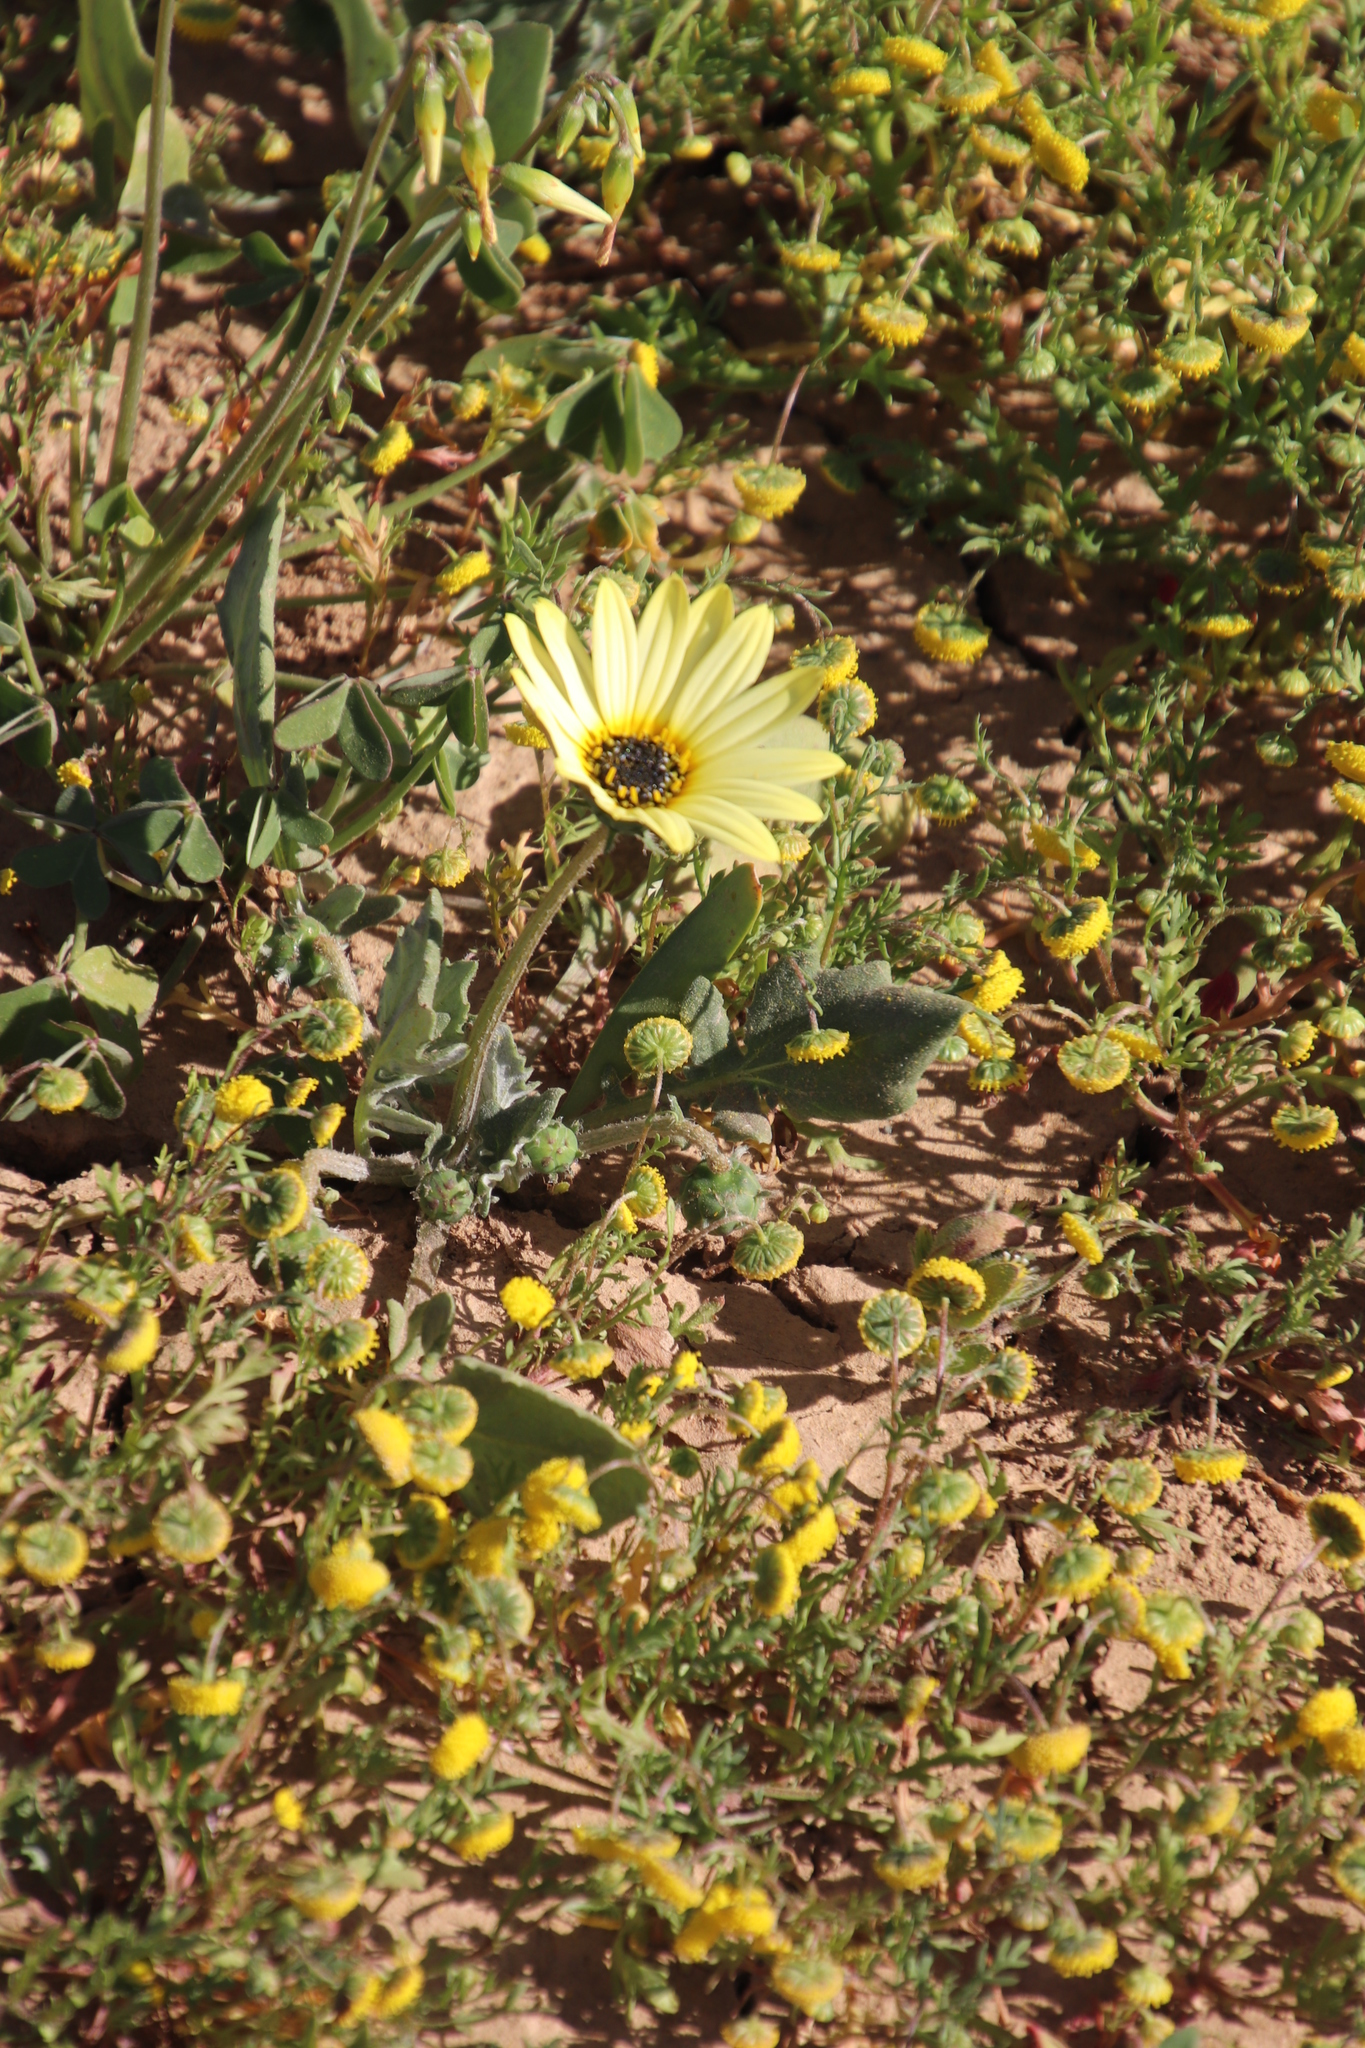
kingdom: Plantae
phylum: Tracheophyta
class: Magnoliopsida
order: Asterales
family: Asteraceae
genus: Arctotheca
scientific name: Arctotheca calendula
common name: Capeweed
